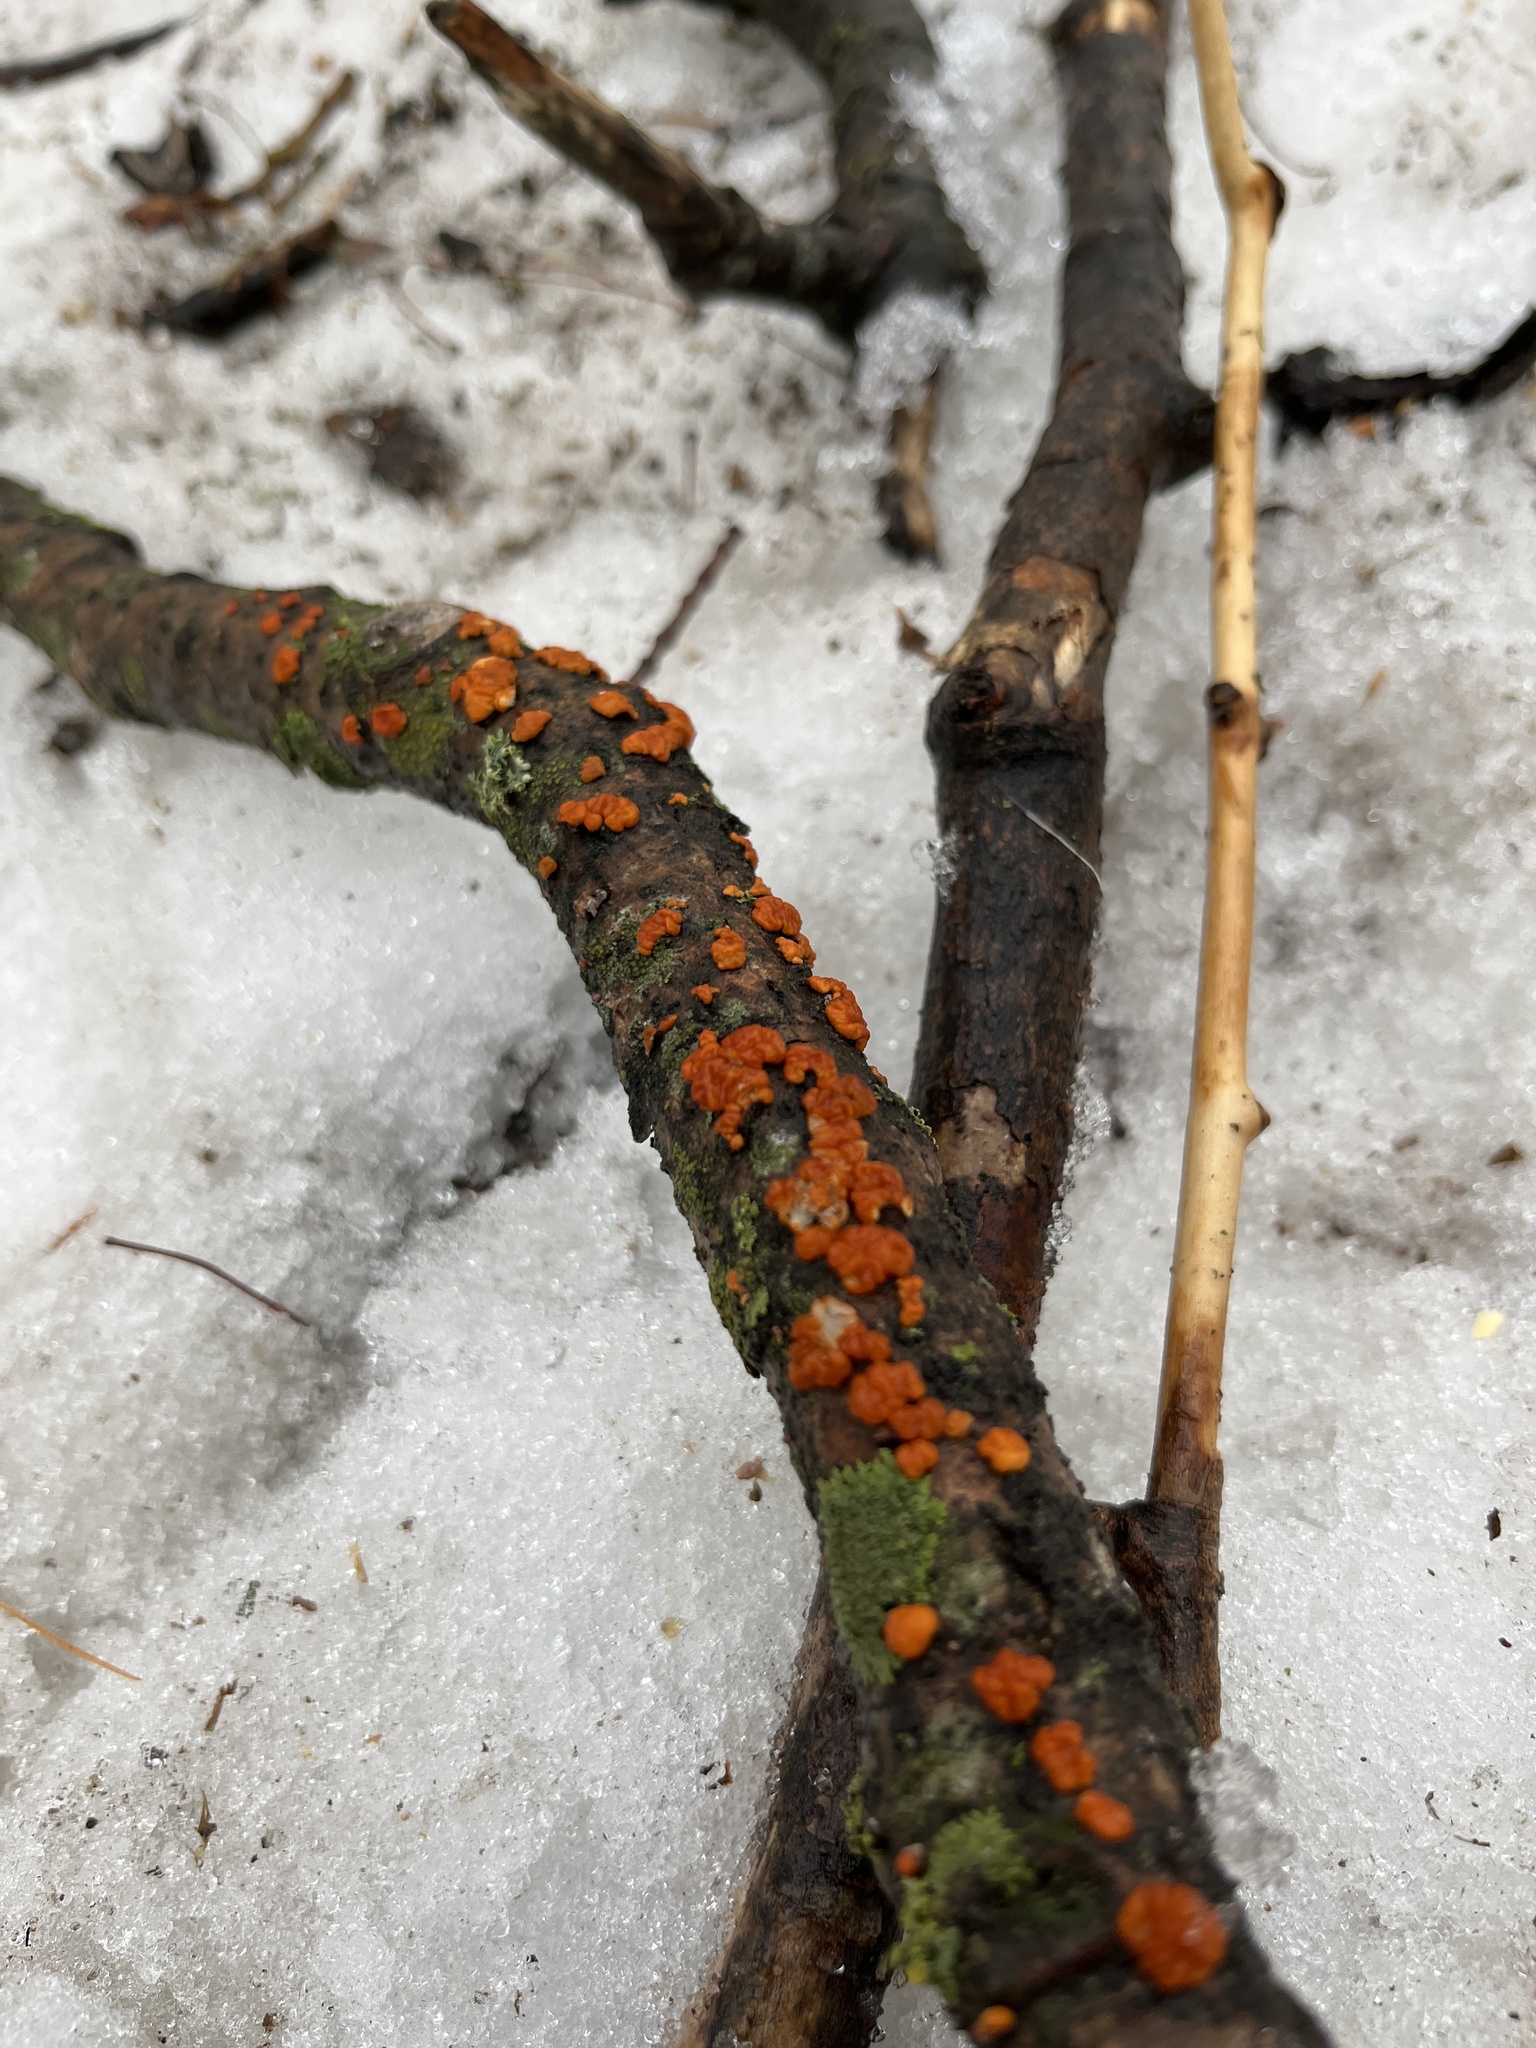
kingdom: Fungi
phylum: Basidiomycota
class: Agaricomycetes
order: Russulales
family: Peniophoraceae
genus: Peniophora
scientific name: Peniophora rufa
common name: Red tree brain fungus
